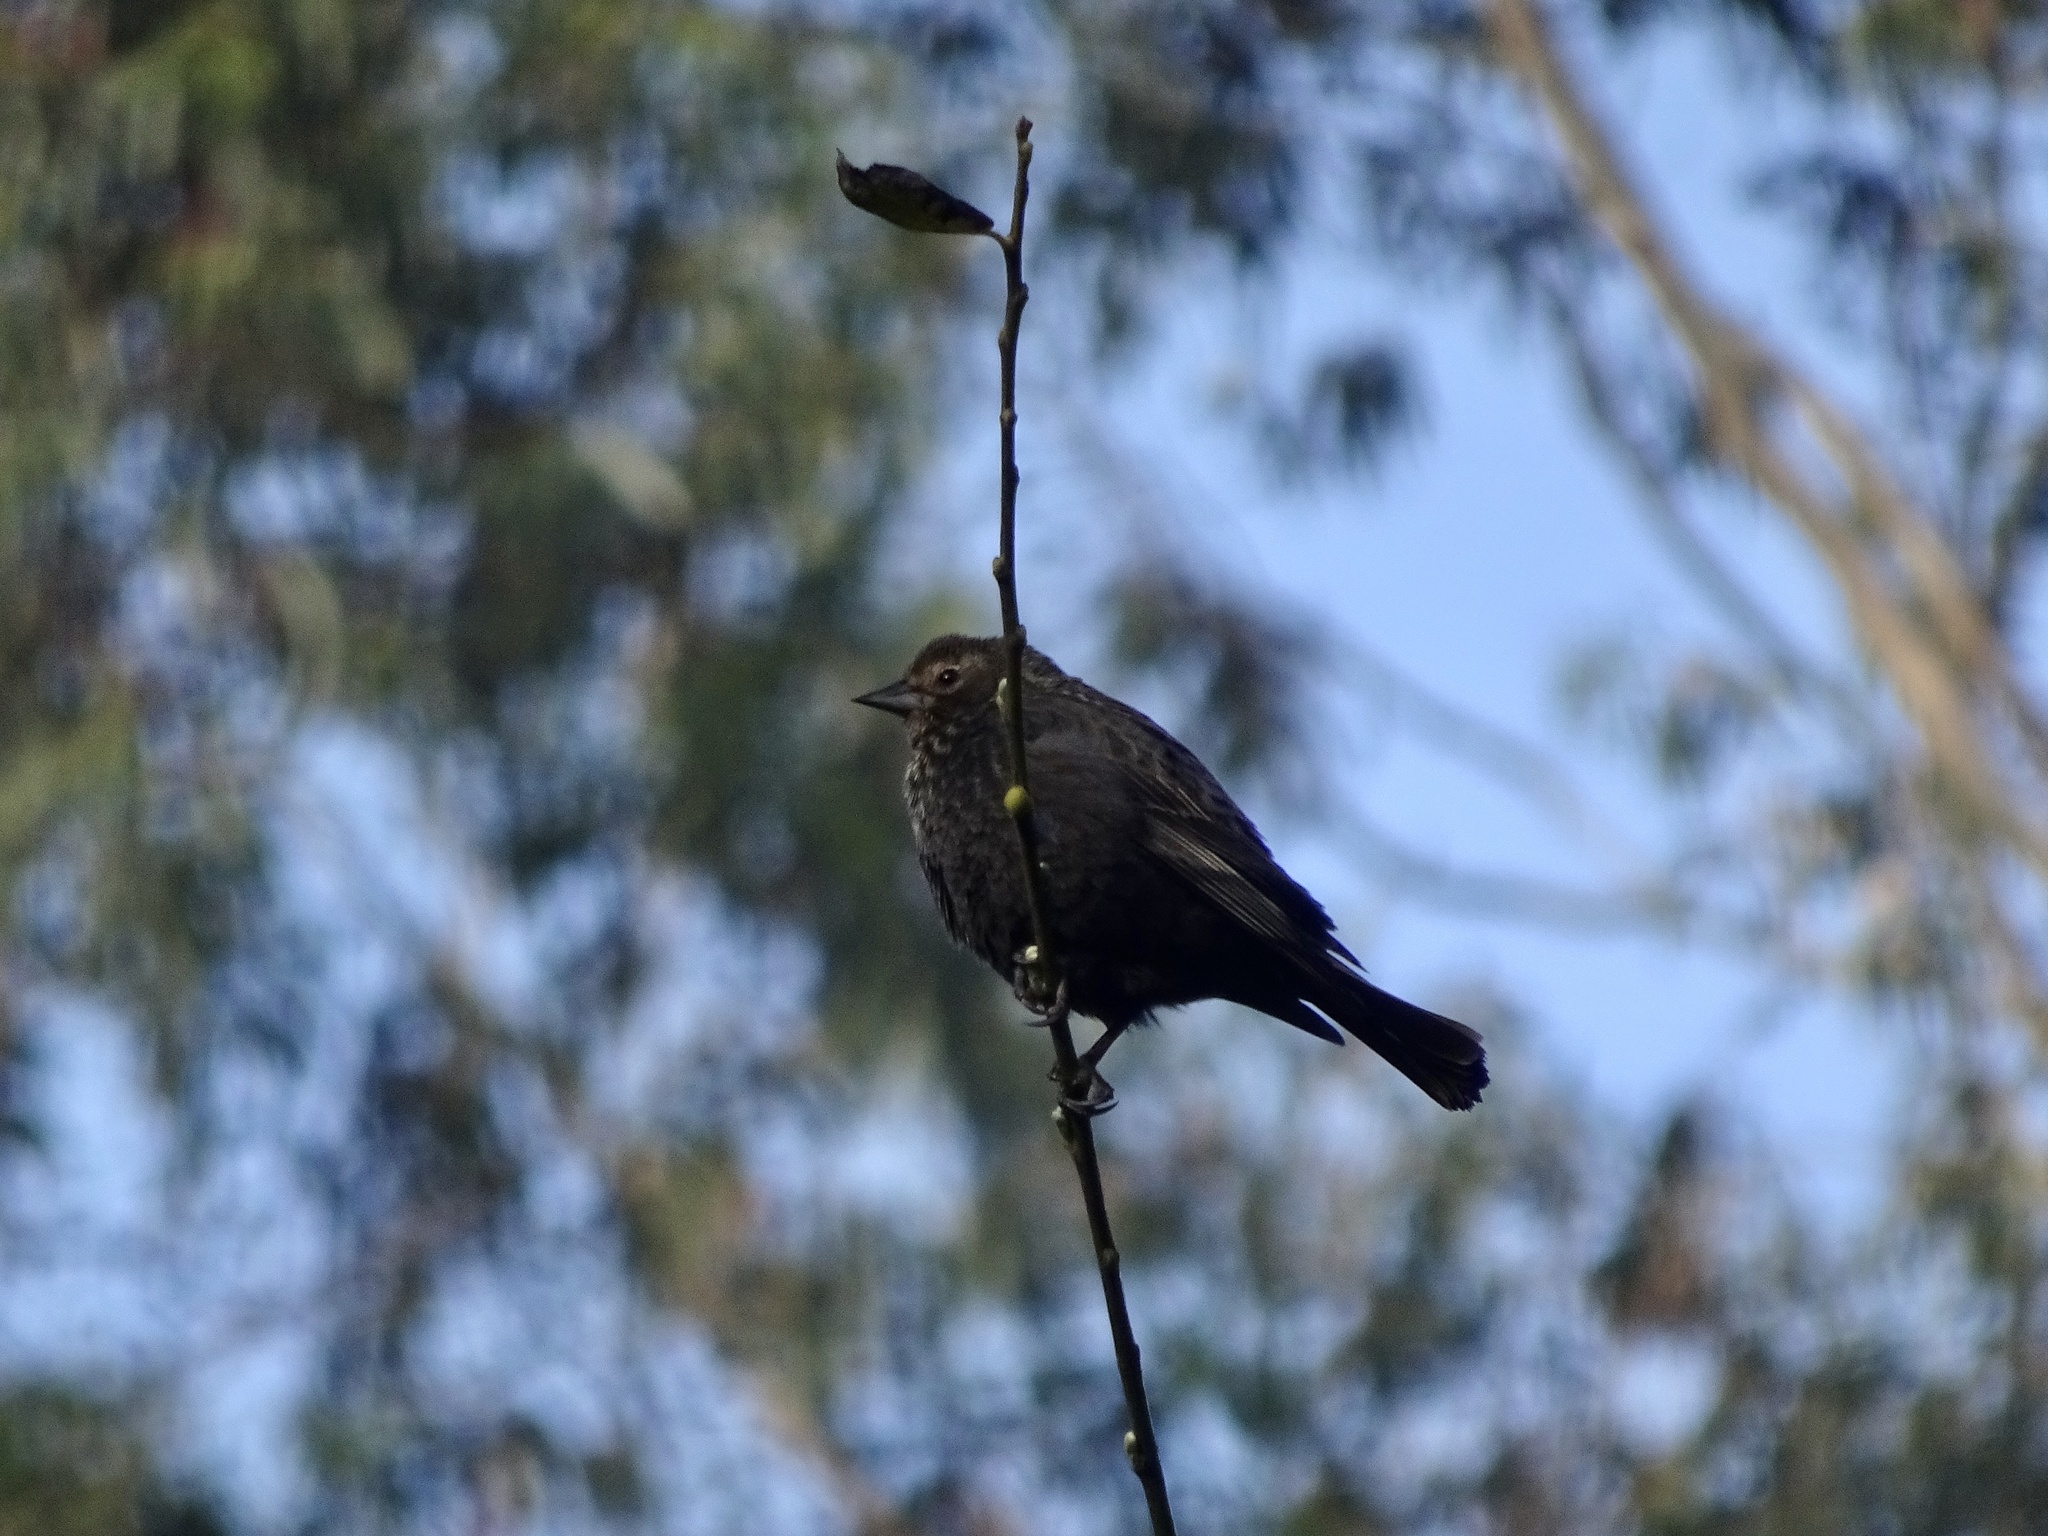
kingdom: Animalia
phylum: Chordata
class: Aves
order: Passeriformes
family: Icteridae
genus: Agelaius
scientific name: Agelaius phoeniceus
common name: Red-winged blackbird
